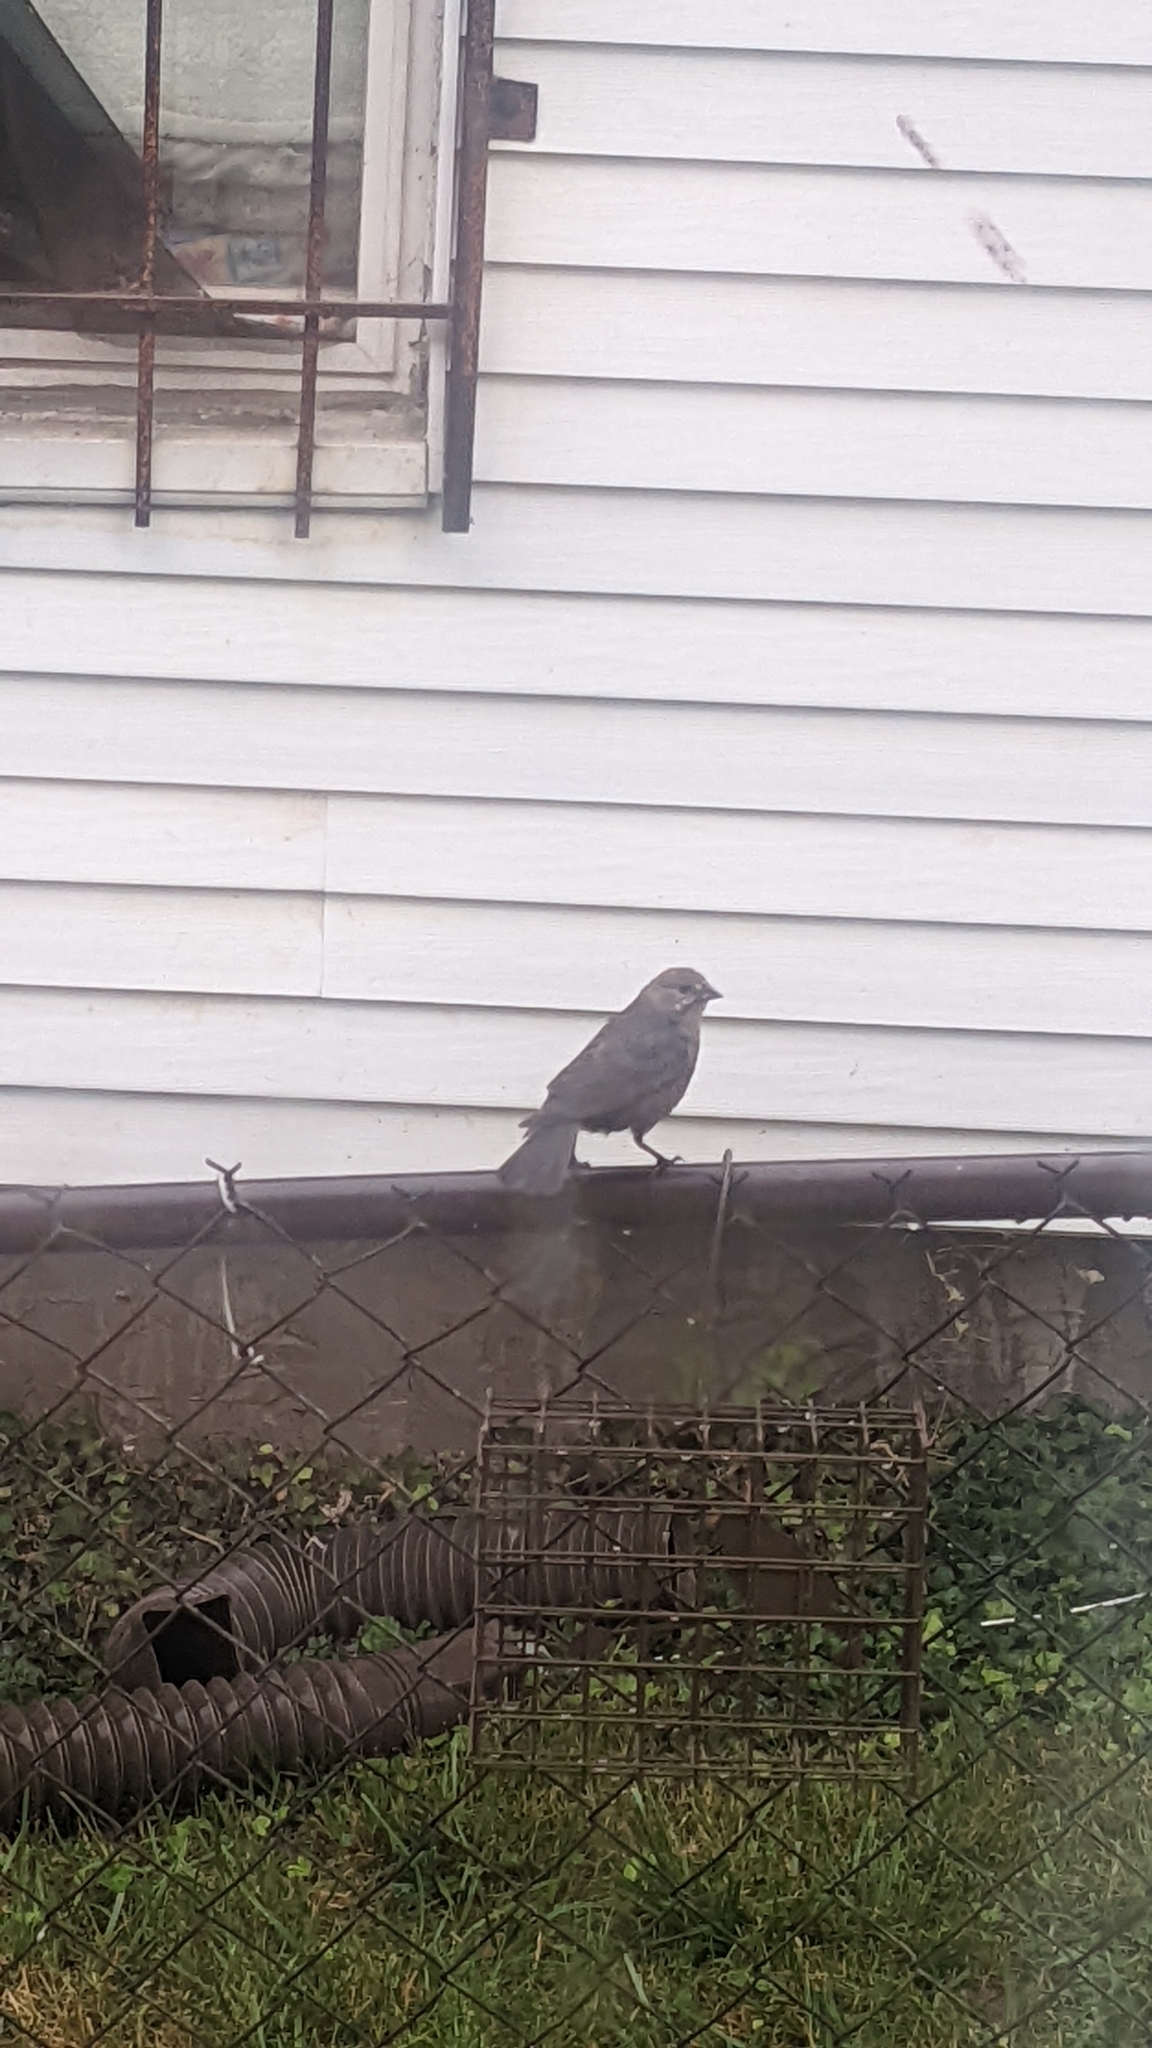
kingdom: Animalia
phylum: Chordata
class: Aves
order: Passeriformes
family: Icteridae
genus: Molothrus
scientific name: Molothrus ater
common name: Brown-headed cowbird
